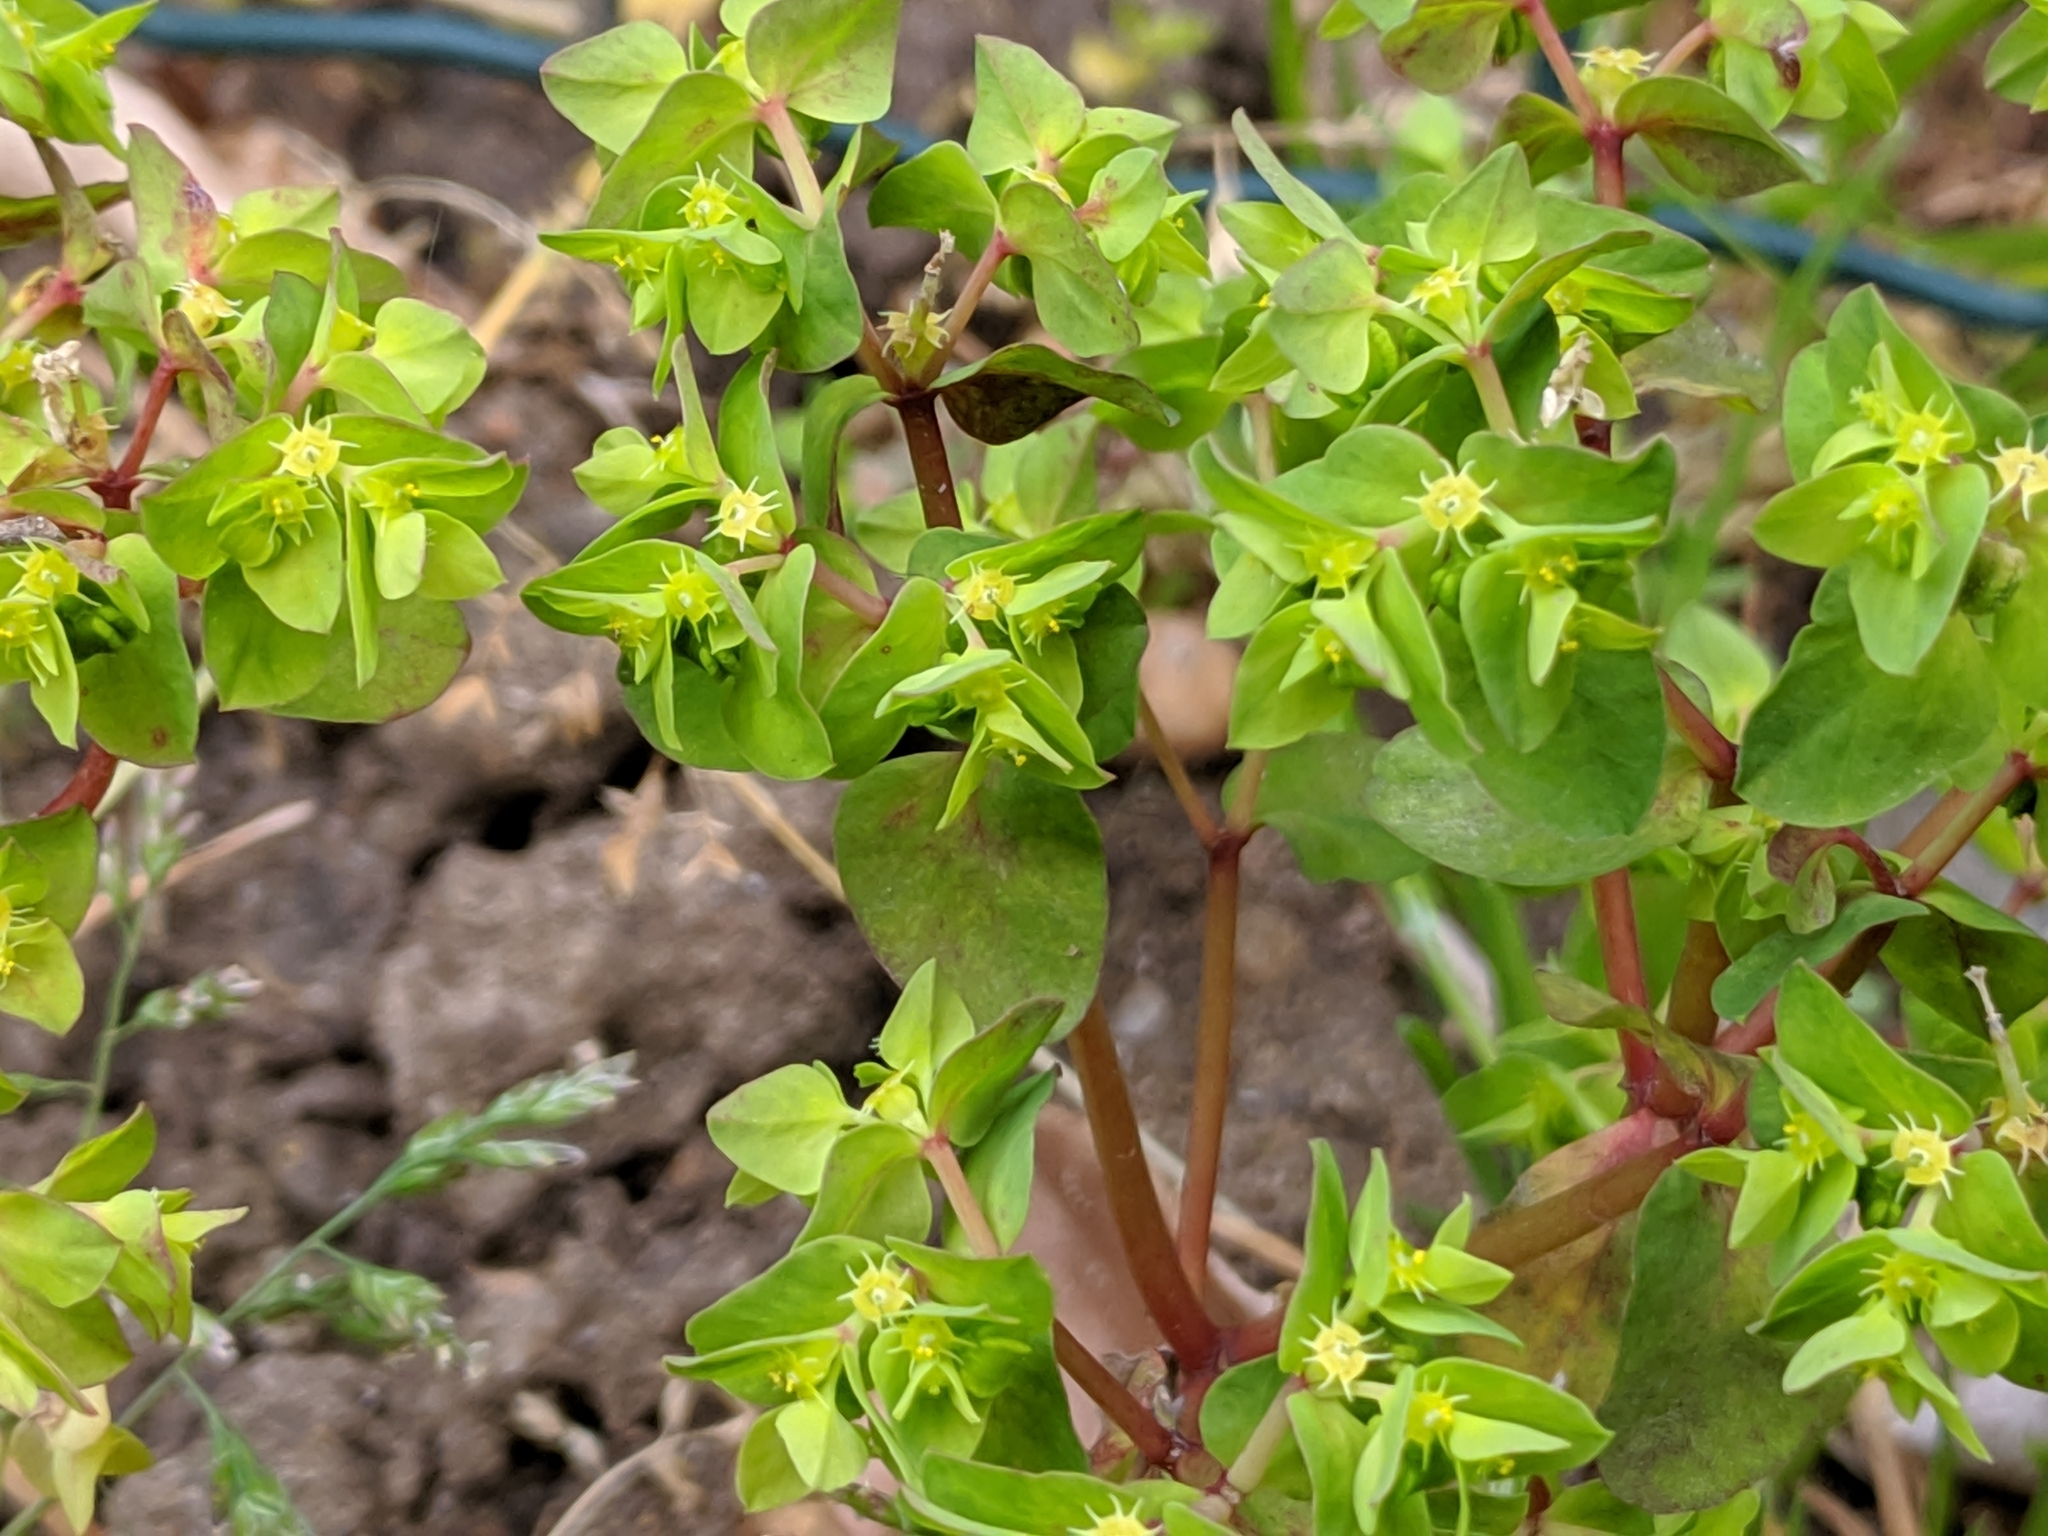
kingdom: Plantae
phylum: Tracheophyta
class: Magnoliopsida
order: Malpighiales
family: Euphorbiaceae
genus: Euphorbia
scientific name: Euphorbia peplus
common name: Petty spurge
